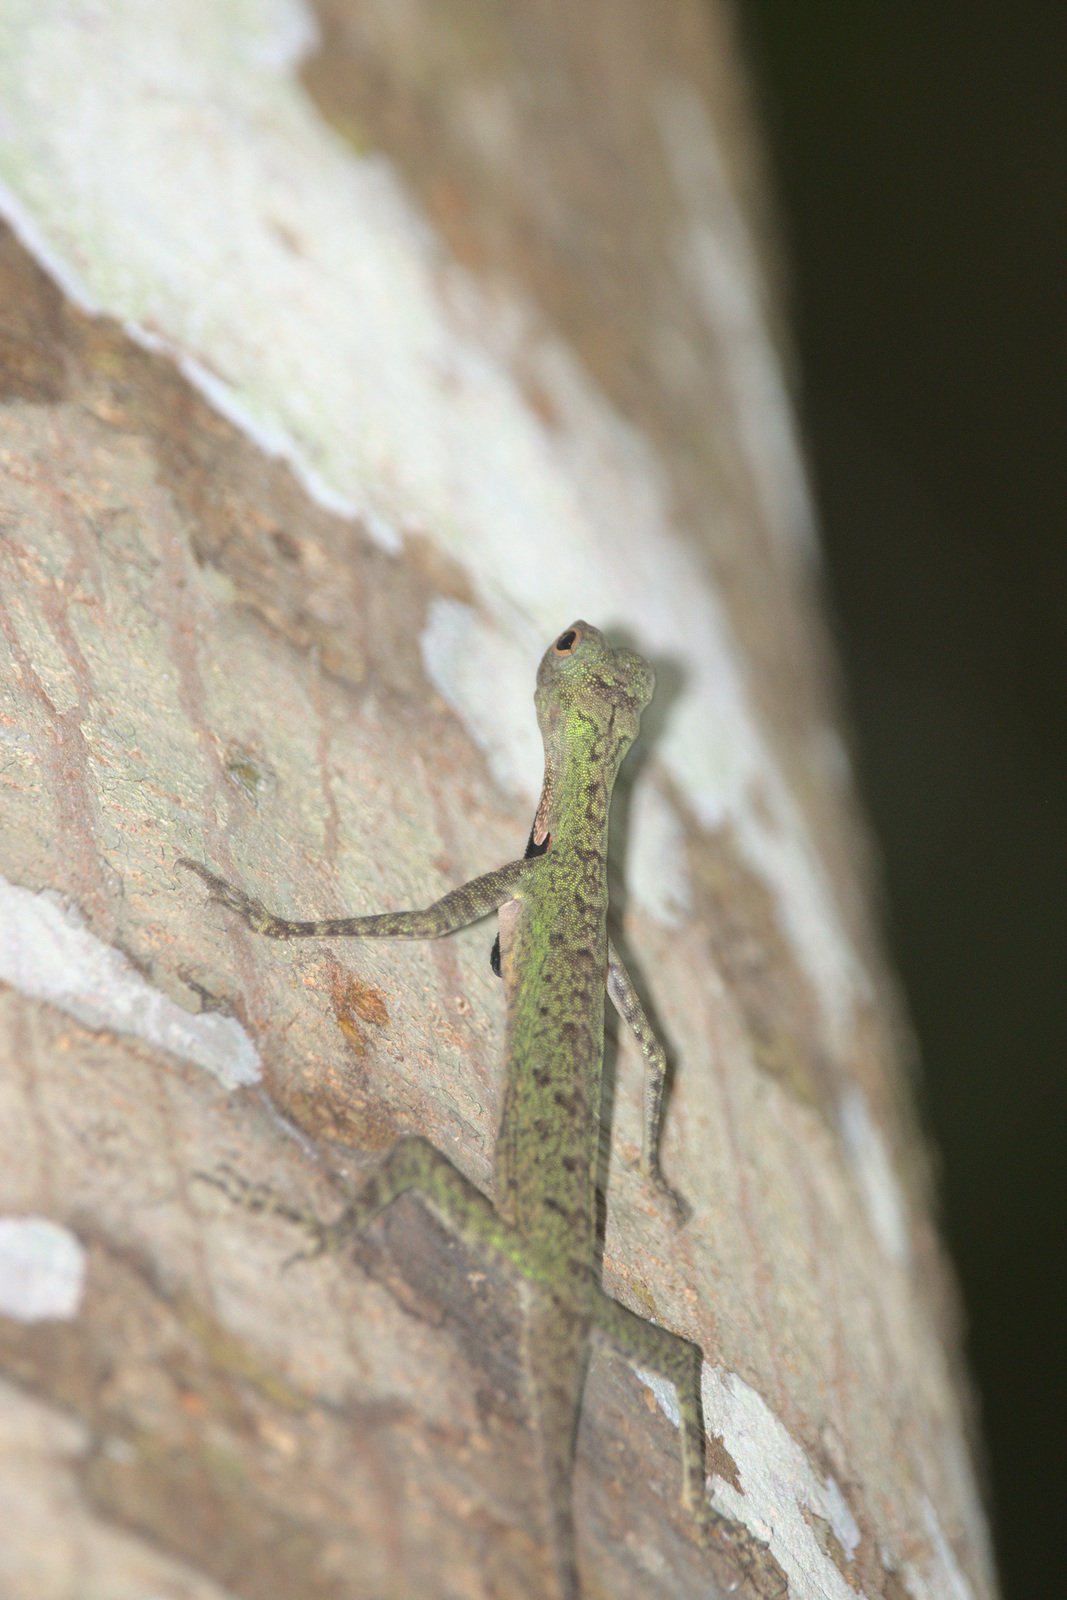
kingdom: Animalia
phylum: Chordata
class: Squamata
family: Agamidae
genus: Draco
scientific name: Draco melanopogon
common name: Black-barbed flying dragon
